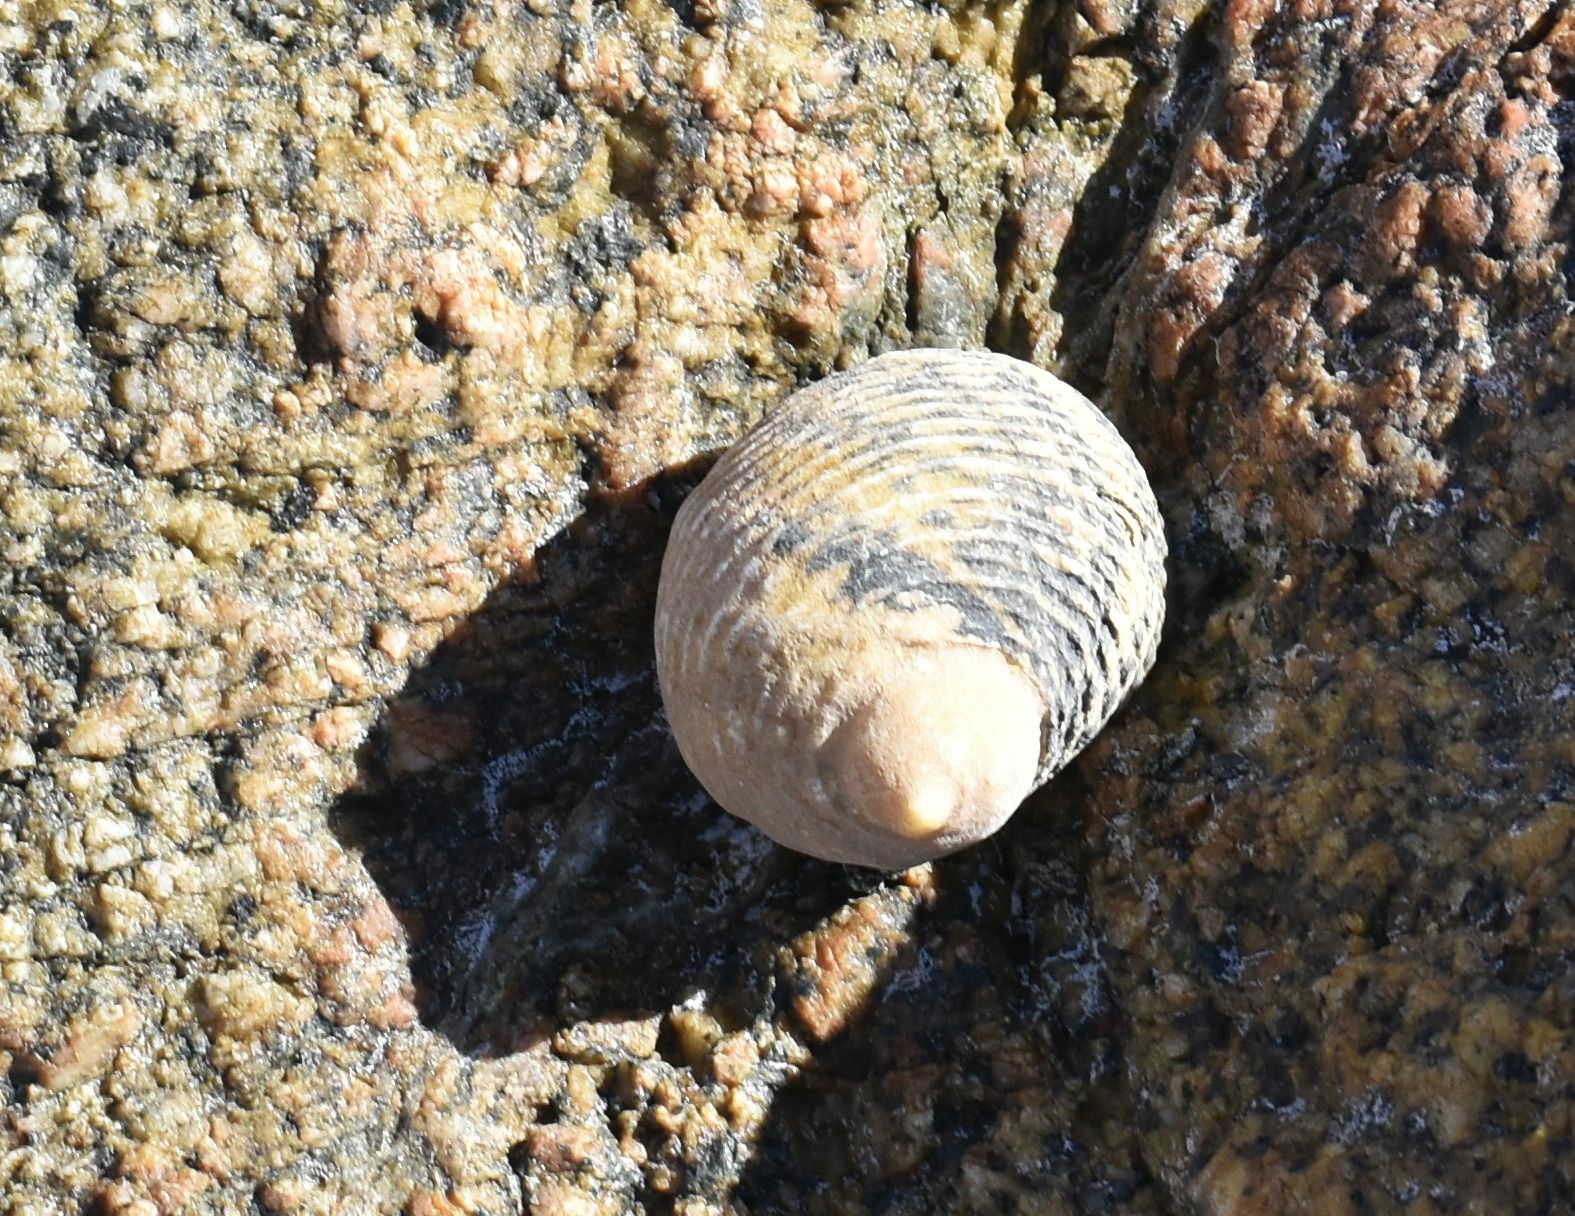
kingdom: Animalia
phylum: Mollusca
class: Gastropoda
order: Cycloneritida
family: Neritidae
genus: Nerita
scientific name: Nerita scabricosta
